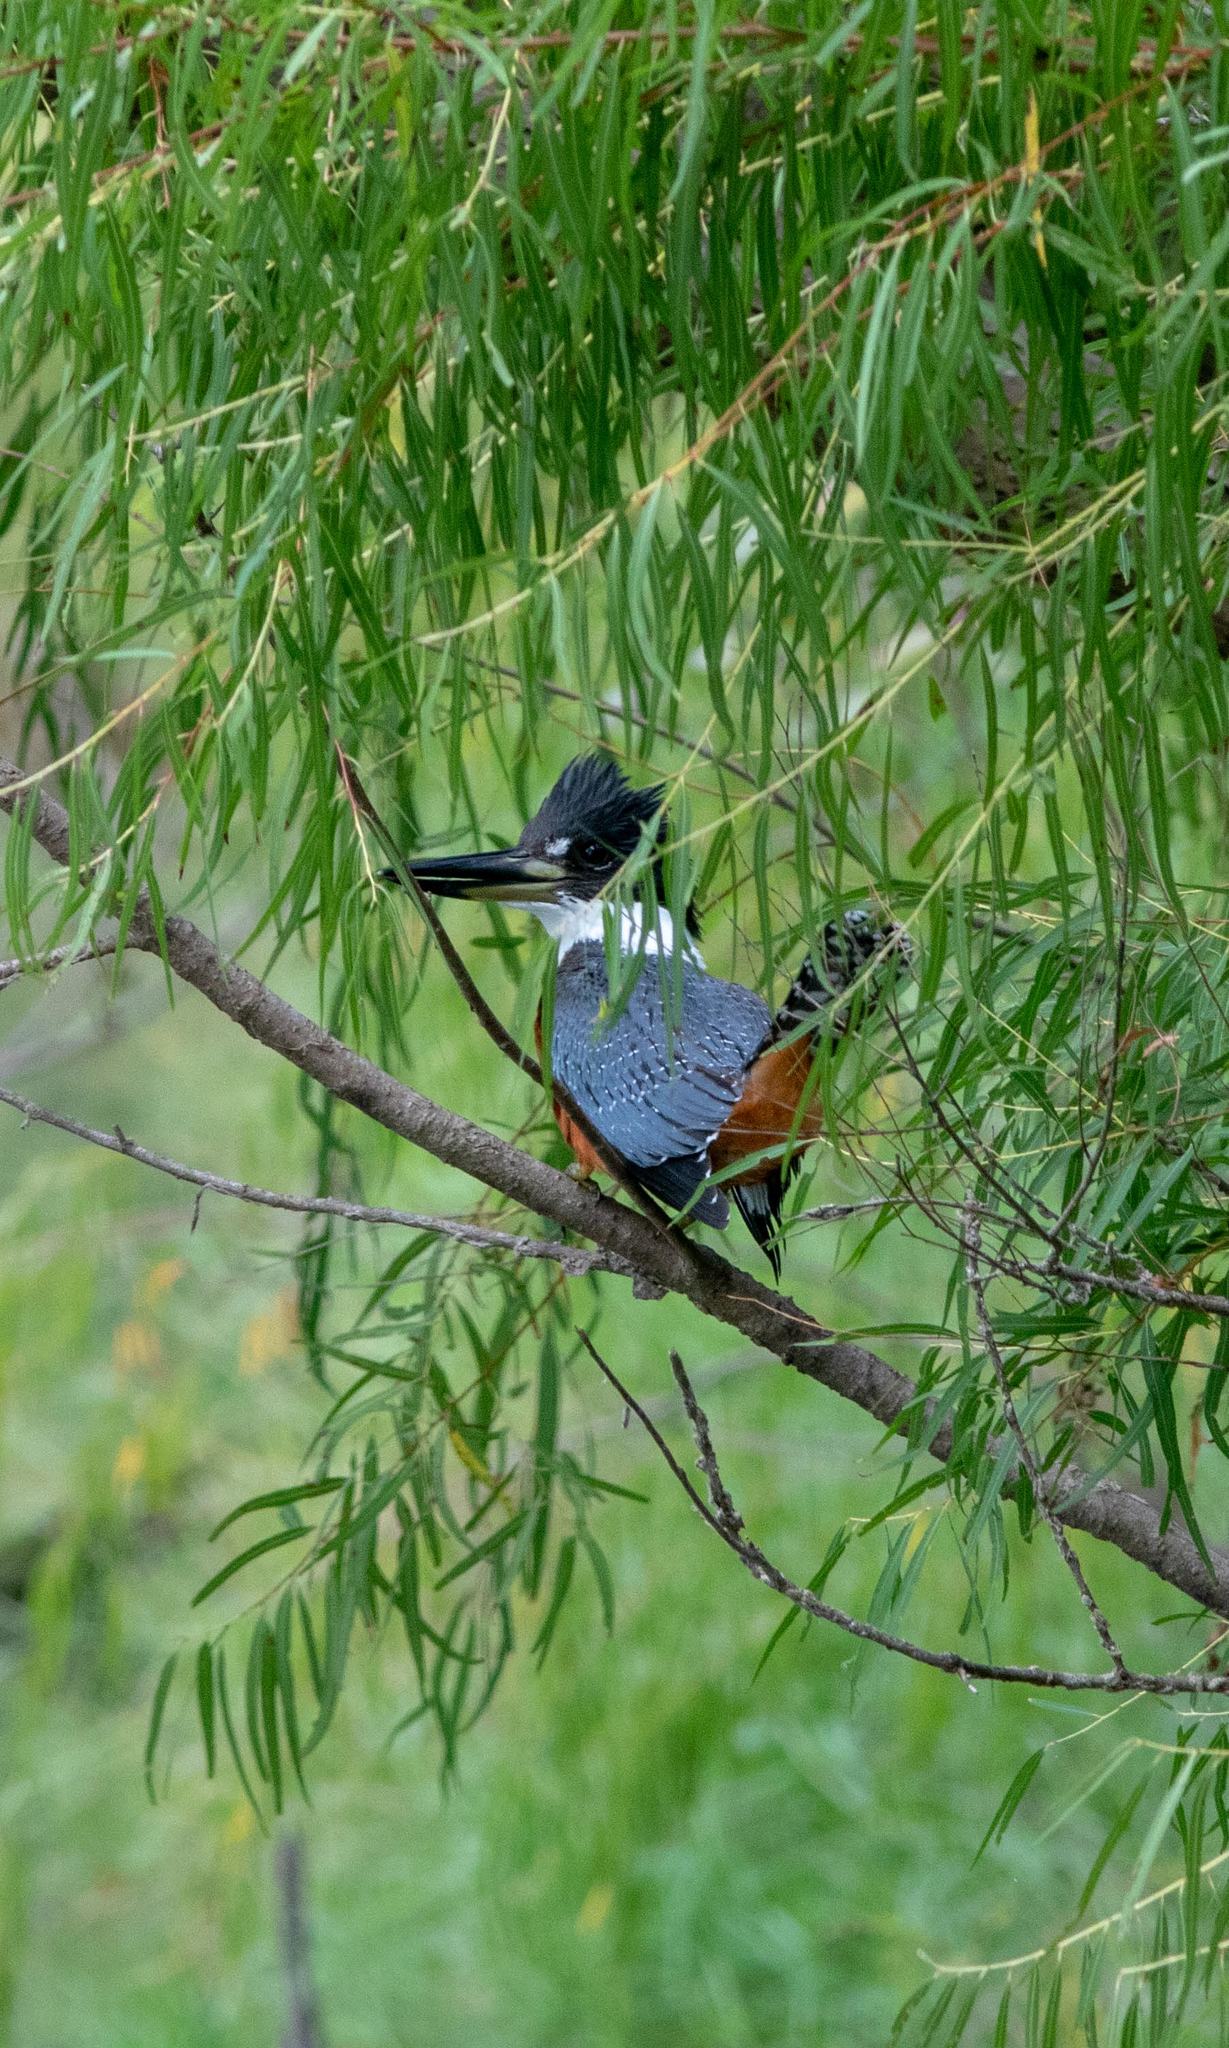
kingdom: Animalia
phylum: Chordata
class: Aves
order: Coraciiformes
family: Alcedinidae
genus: Megaceryle
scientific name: Megaceryle torquata
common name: Ringed kingfisher
